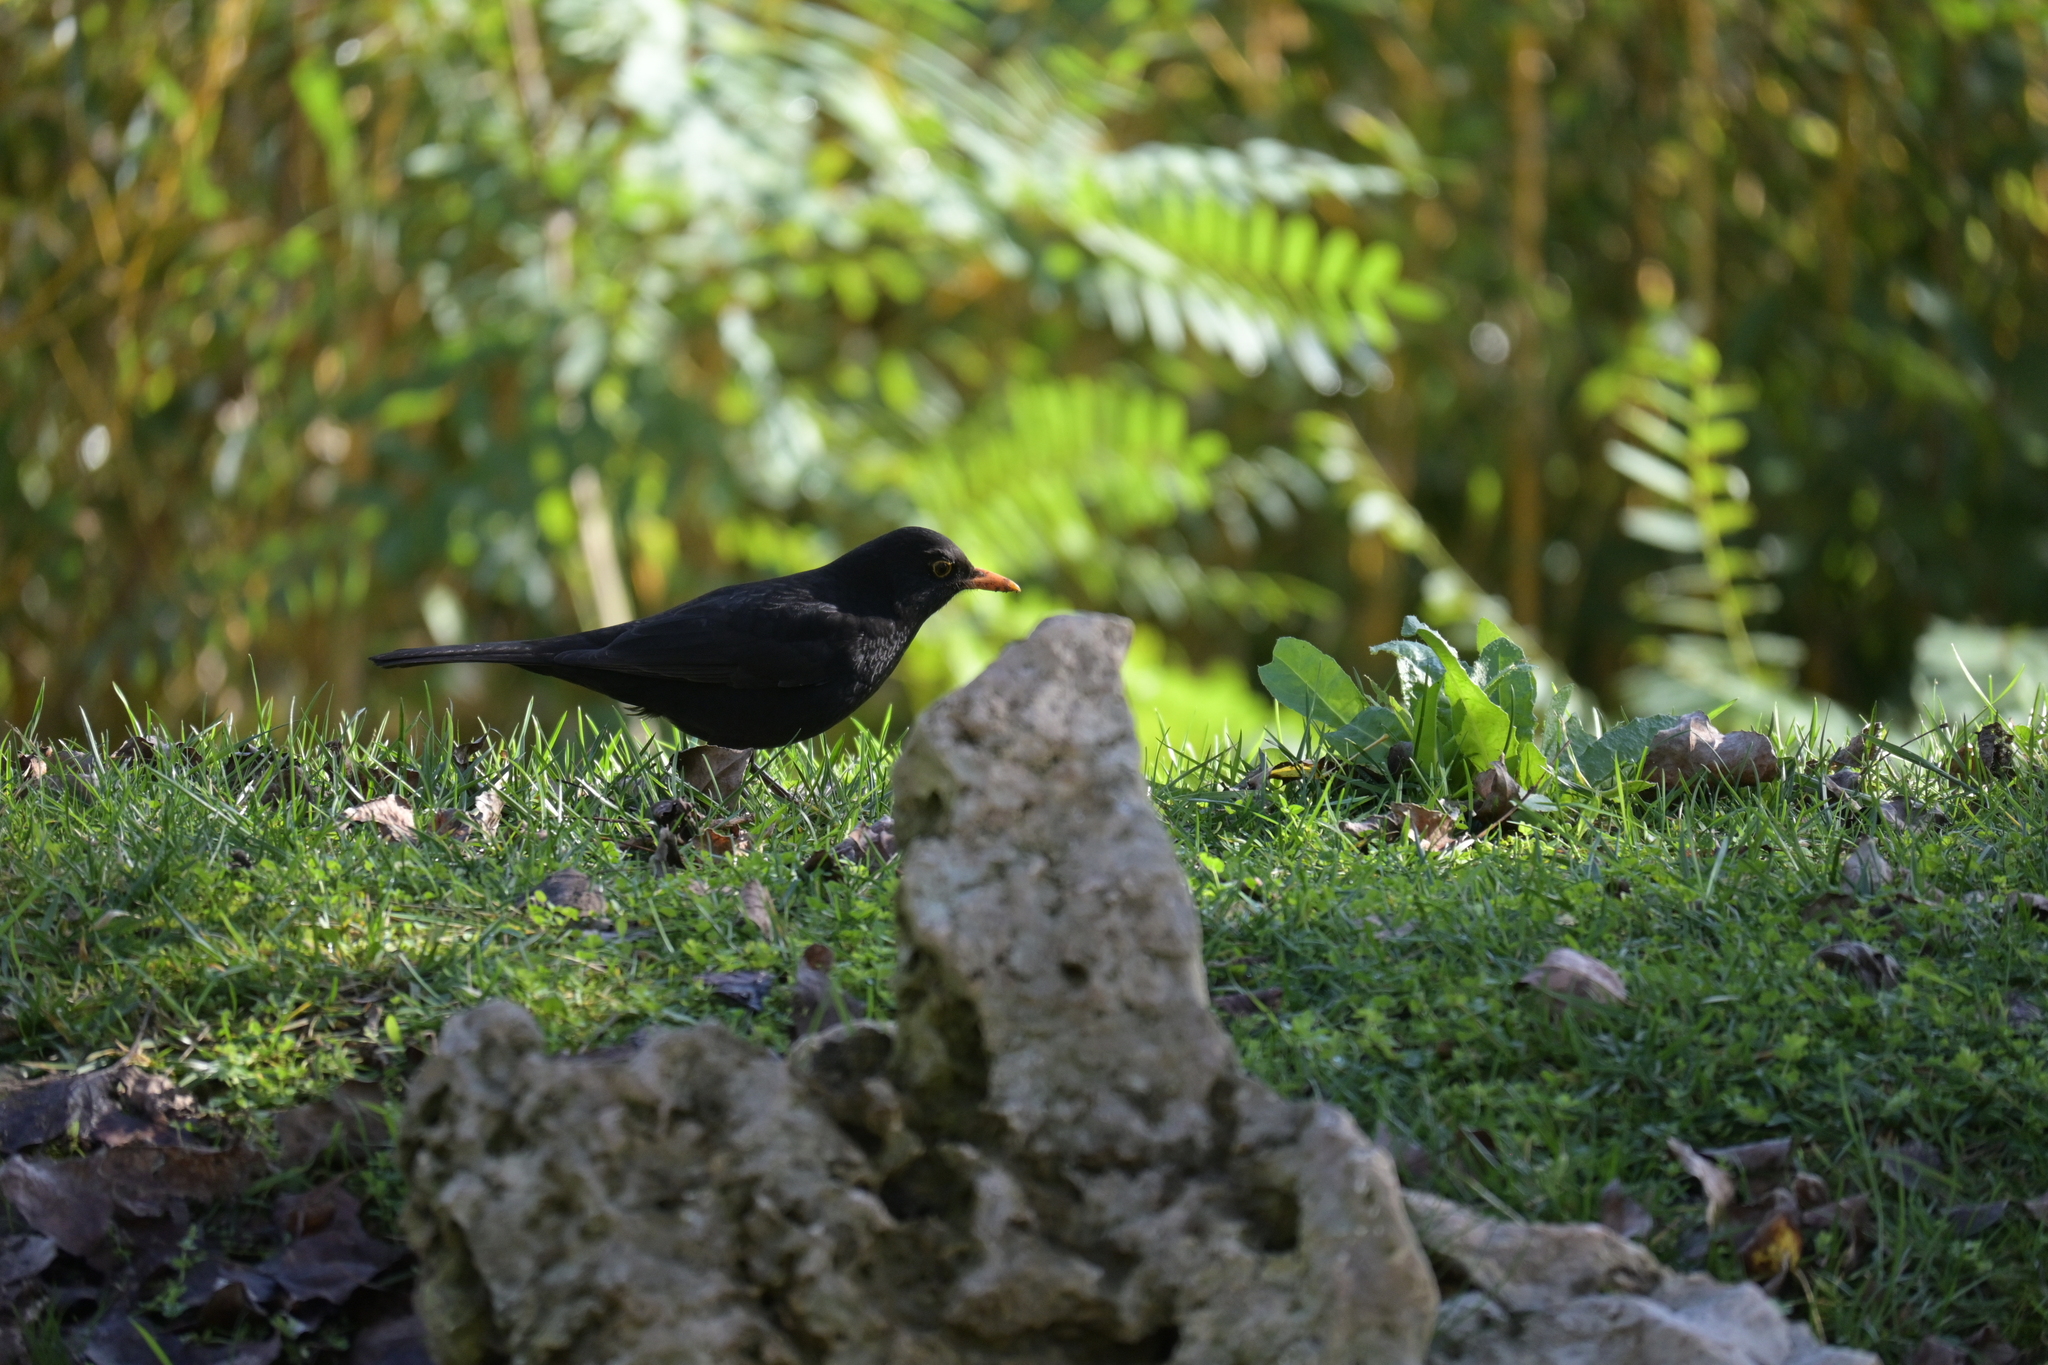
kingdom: Animalia
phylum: Chordata
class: Aves
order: Passeriformes
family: Turdidae
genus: Turdus
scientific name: Turdus merula
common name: Common blackbird
